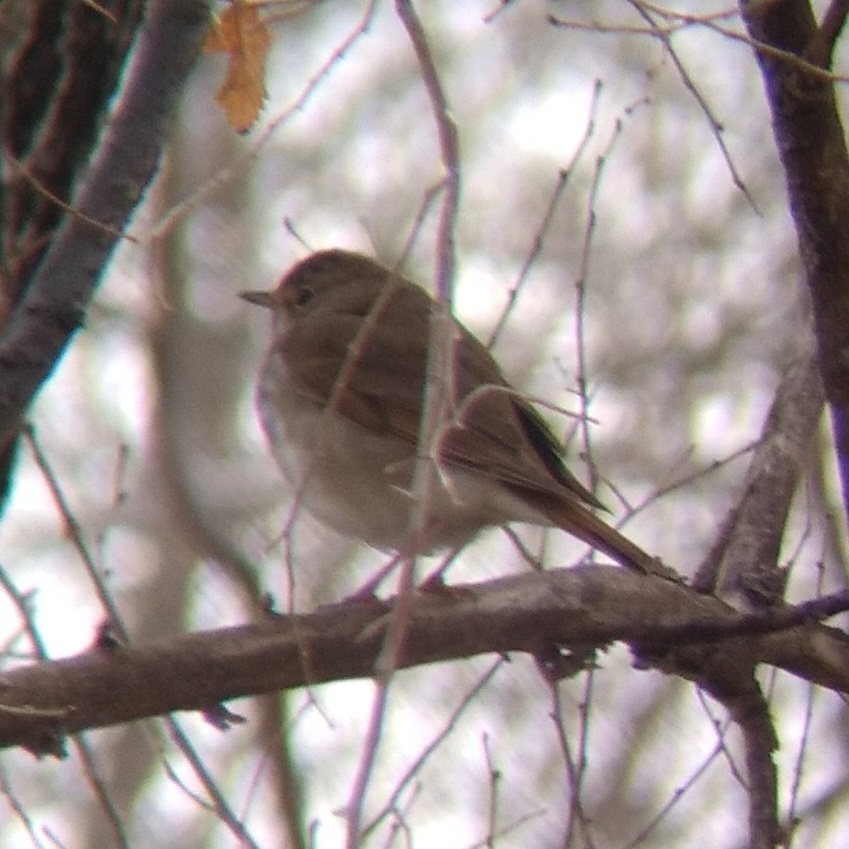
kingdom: Animalia
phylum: Chordata
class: Aves
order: Passeriformes
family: Turdidae
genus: Catharus
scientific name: Catharus guttatus
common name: Hermit thrush
